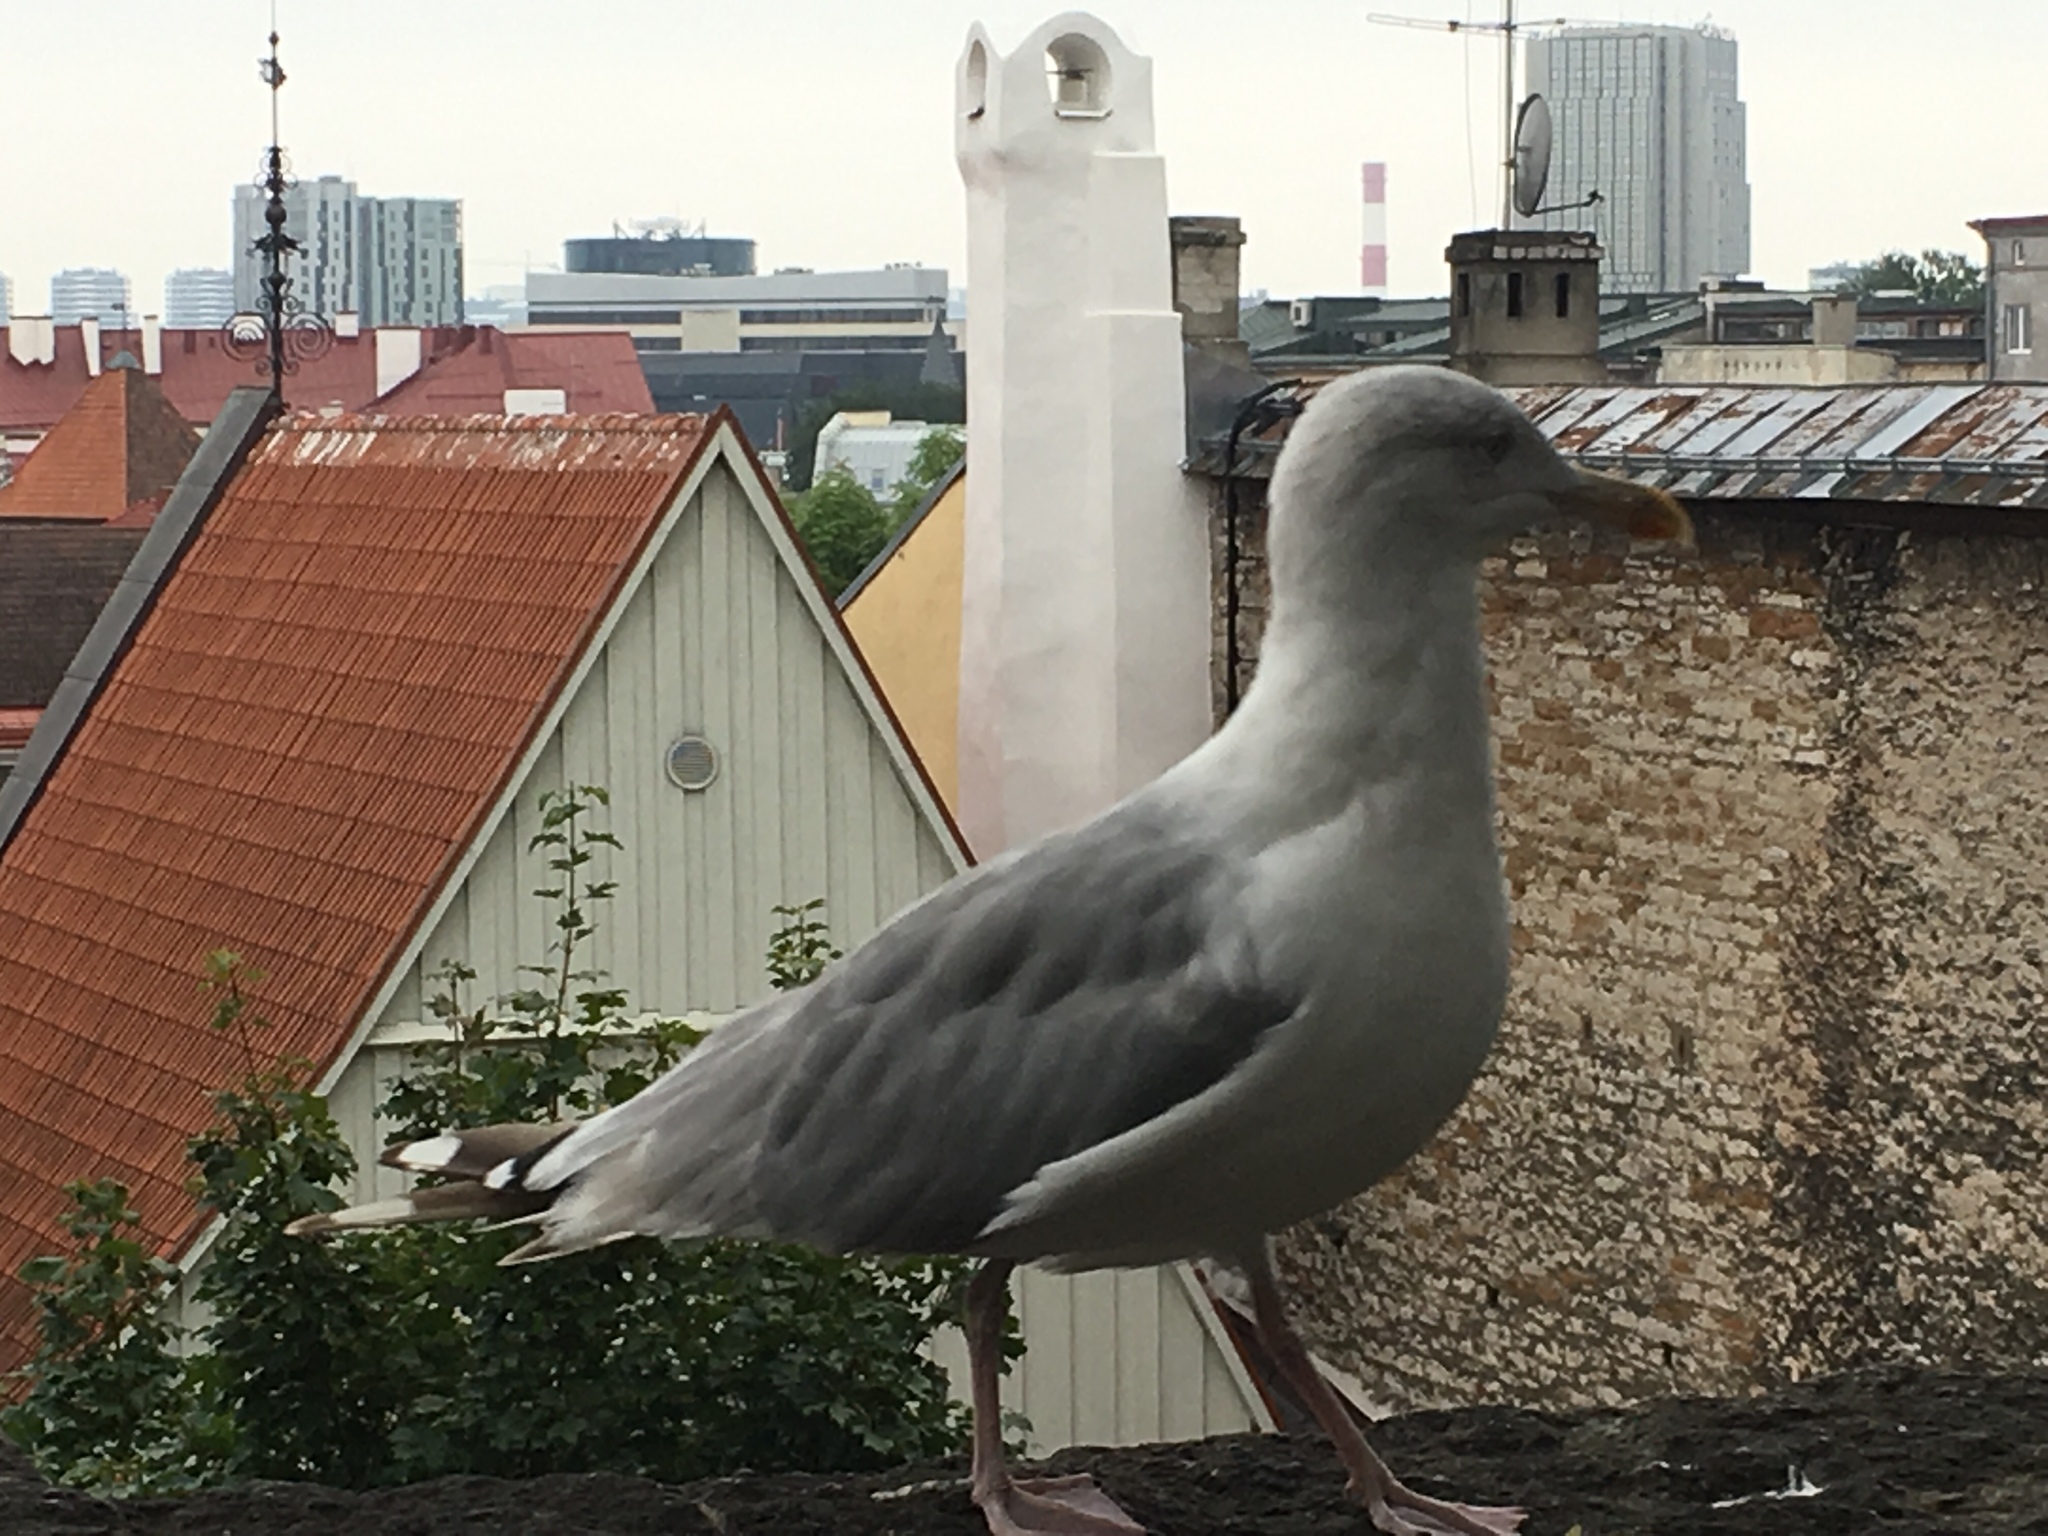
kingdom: Animalia
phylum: Chordata
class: Aves
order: Charadriiformes
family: Laridae
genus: Larus
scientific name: Larus argentatus
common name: Herring gull
